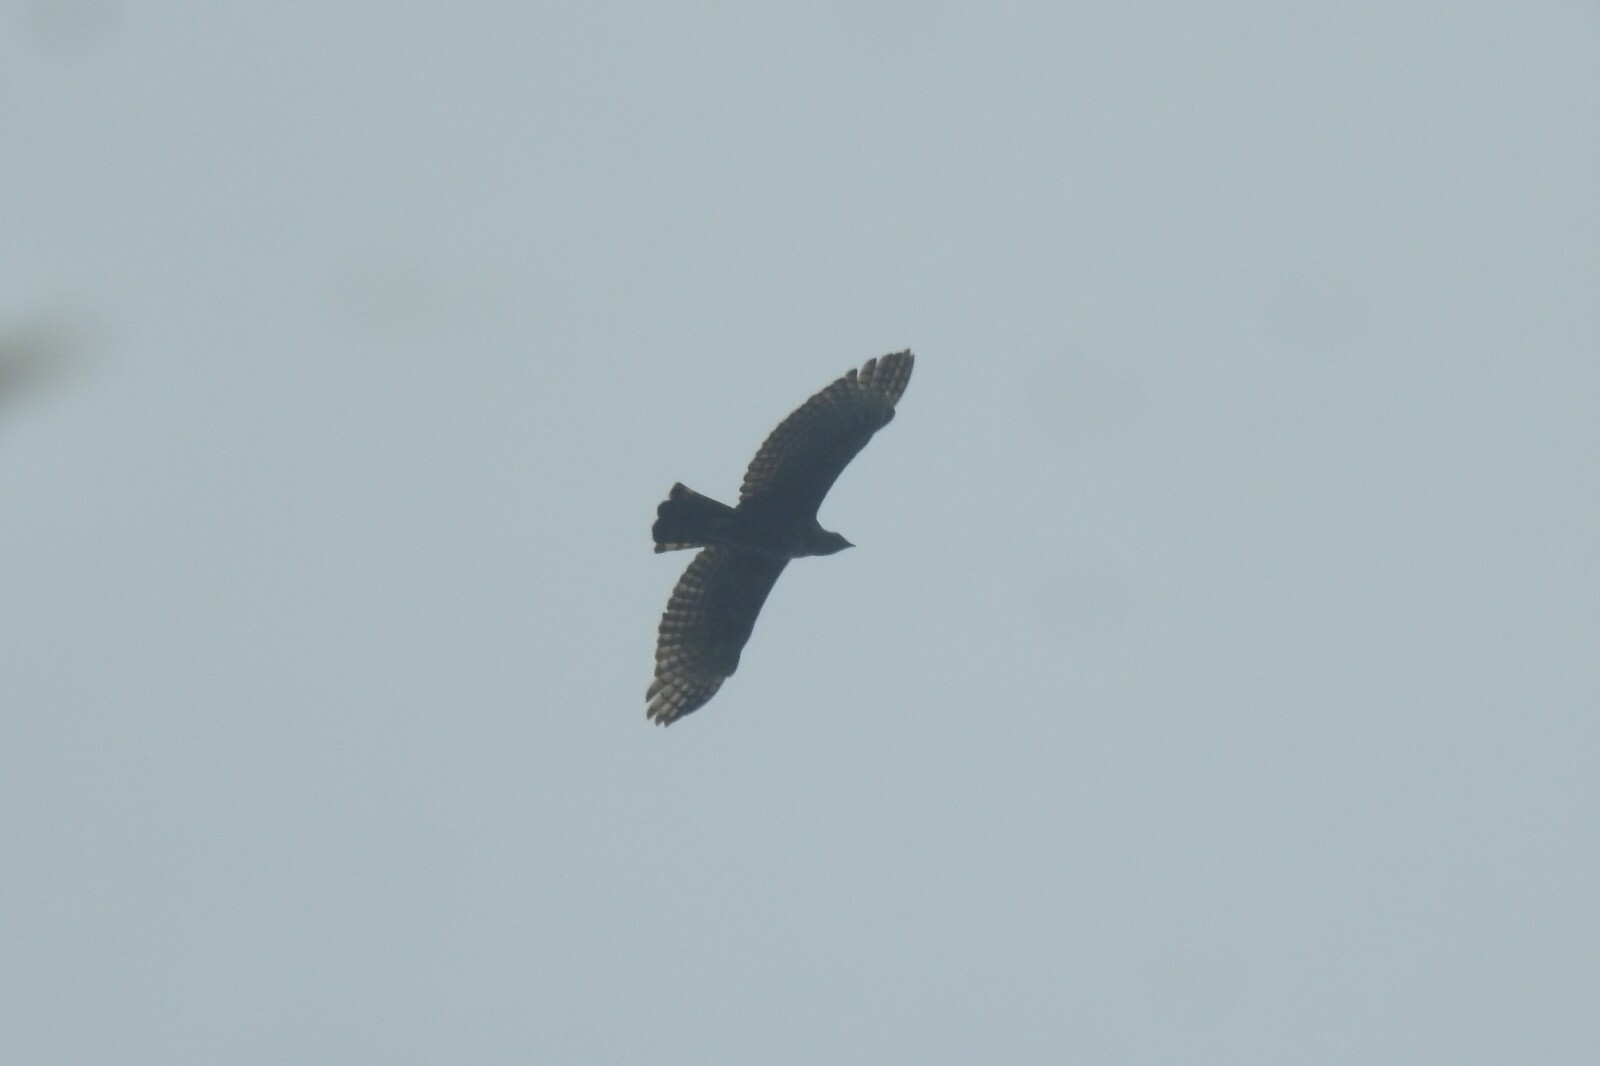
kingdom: Animalia
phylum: Chordata
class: Aves
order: Accipitriformes
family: Accipitridae
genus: Pernis
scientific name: Pernis ptilorhynchus
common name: Crested honey buzzard
